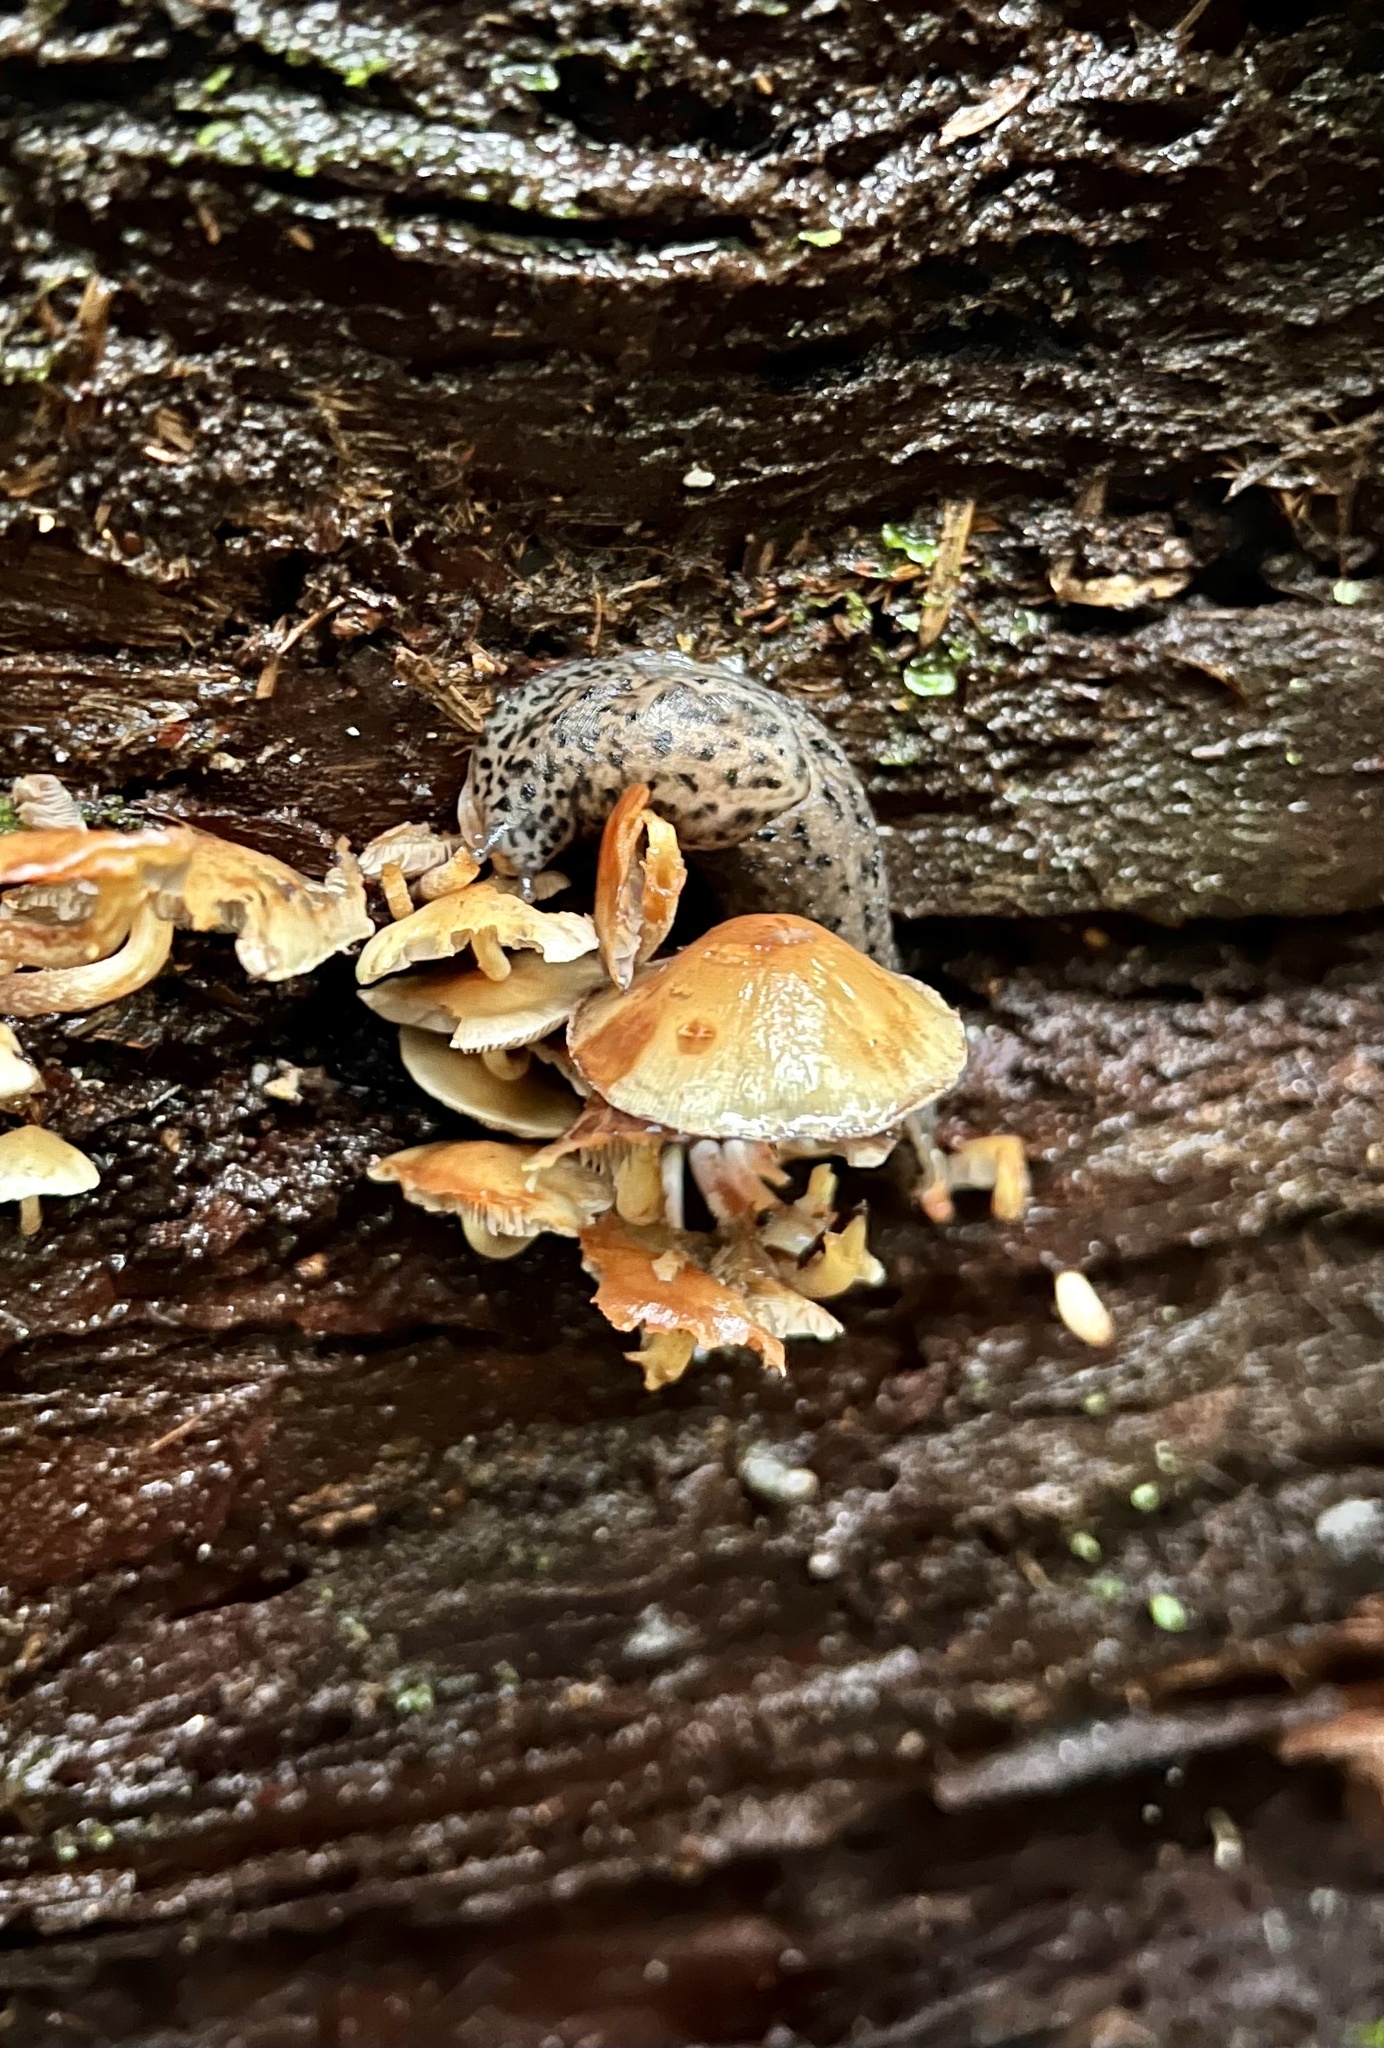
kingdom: Animalia
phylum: Mollusca
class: Gastropoda
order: Stylommatophora
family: Limacidae
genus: Limax
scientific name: Limax maximus
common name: Great grey slug
